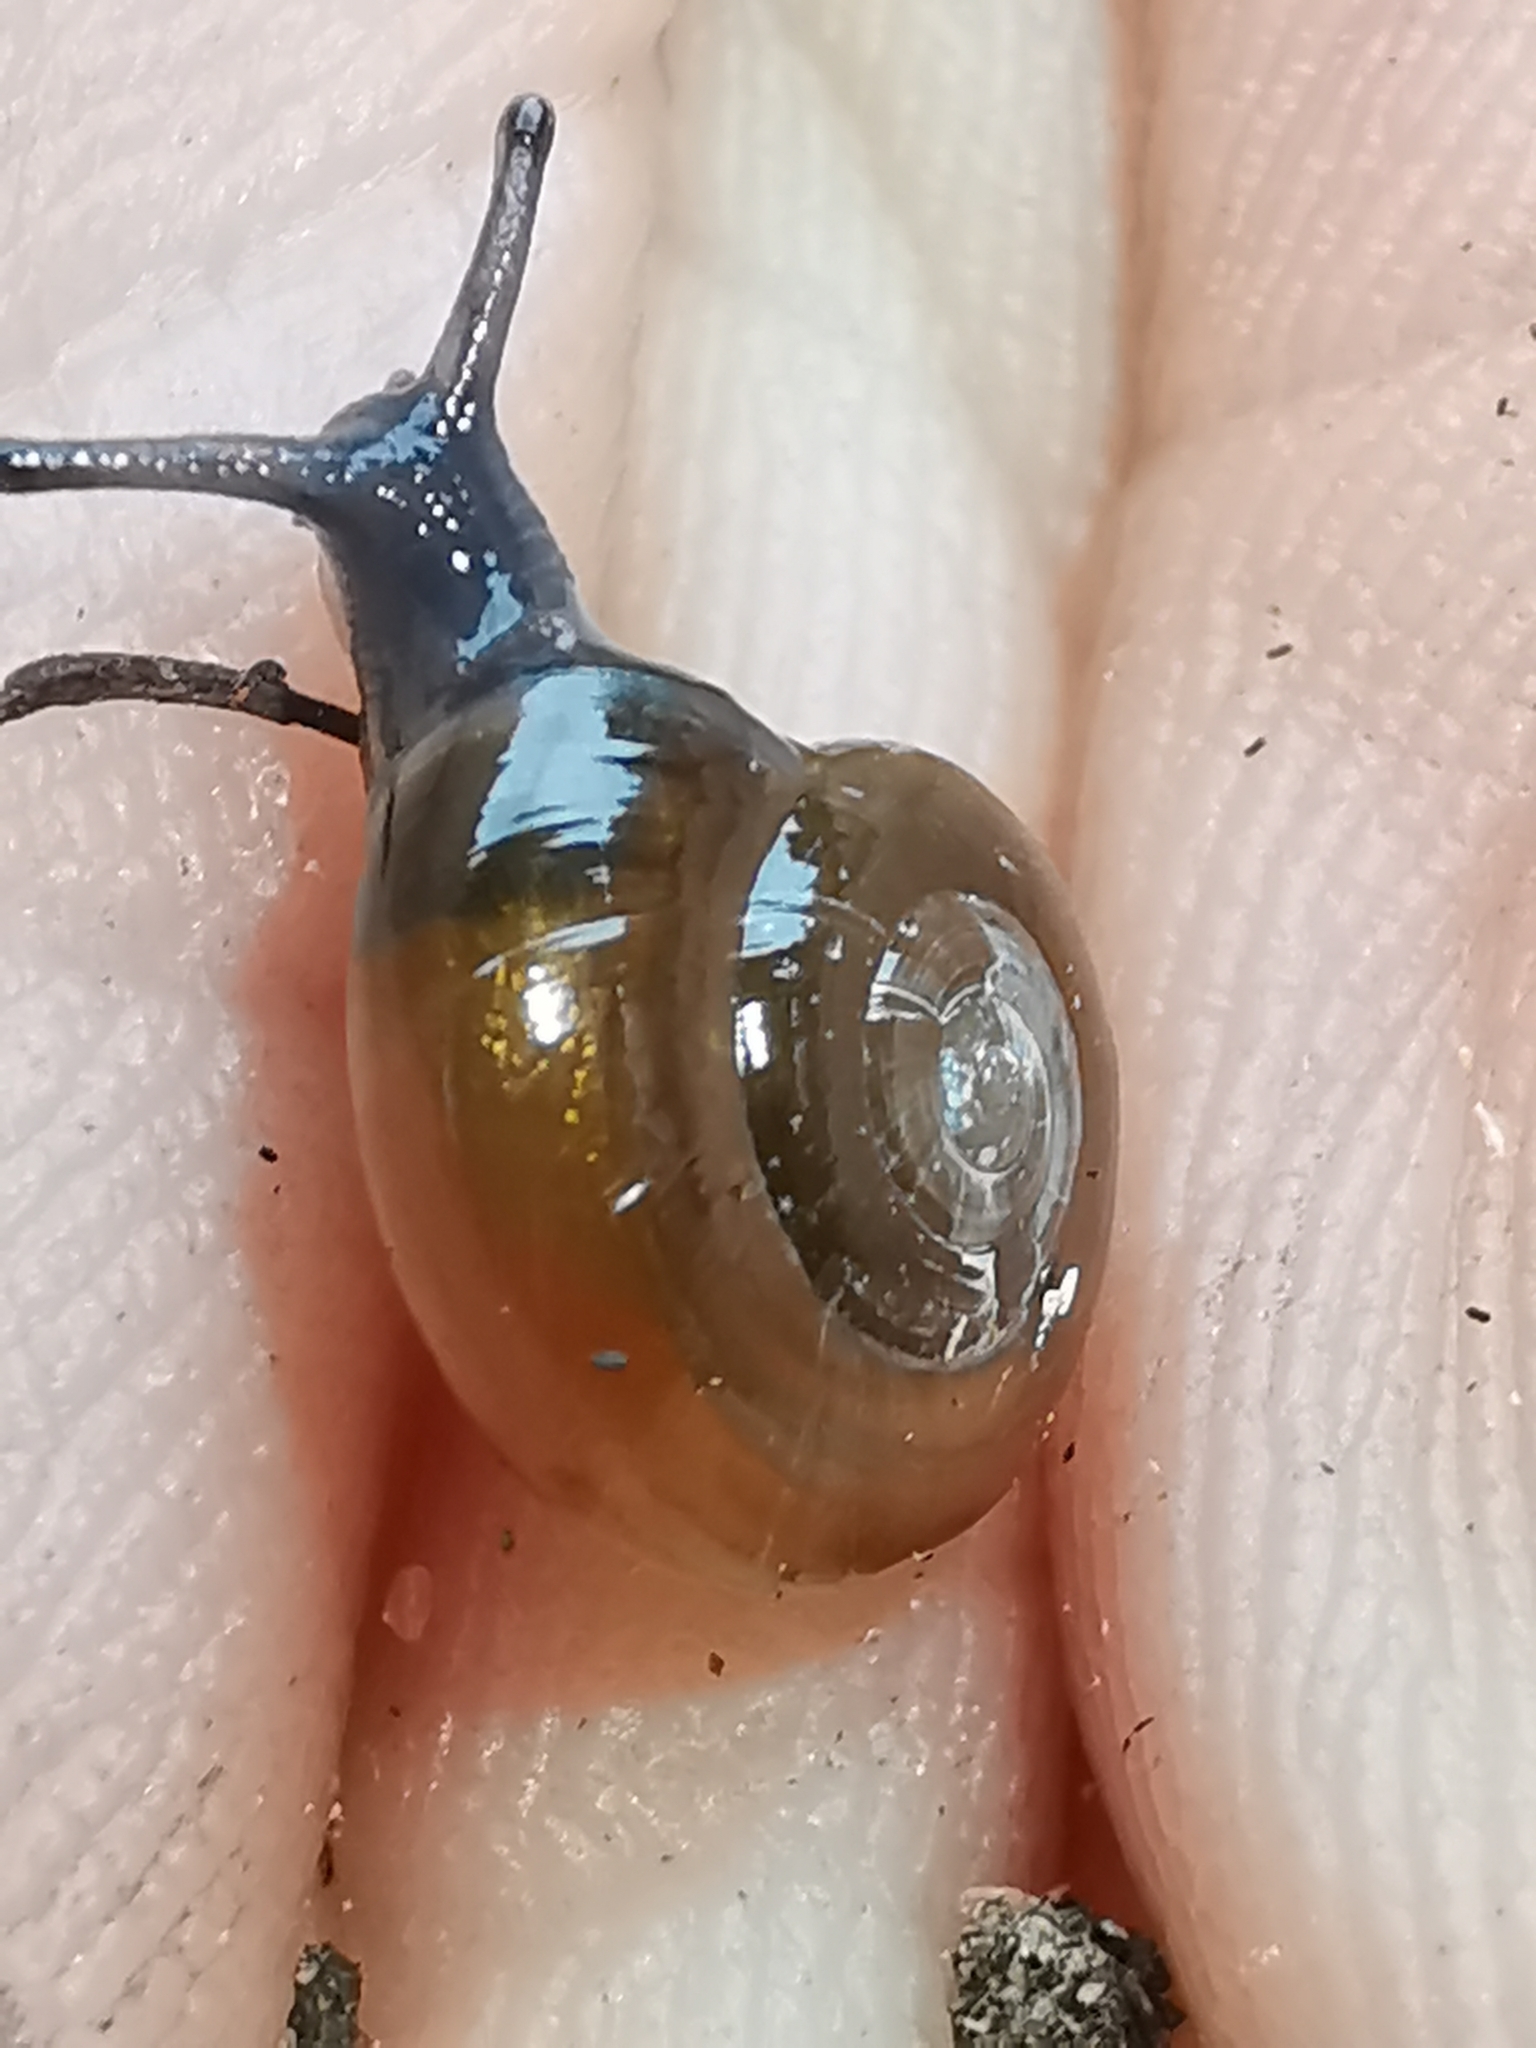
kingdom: Animalia
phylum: Mollusca
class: Gastropoda
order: Stylommatophora
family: Oxychilidae
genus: Oxychilus
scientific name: Oxychilus draparnaudi
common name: Draparnaud's glass snail
